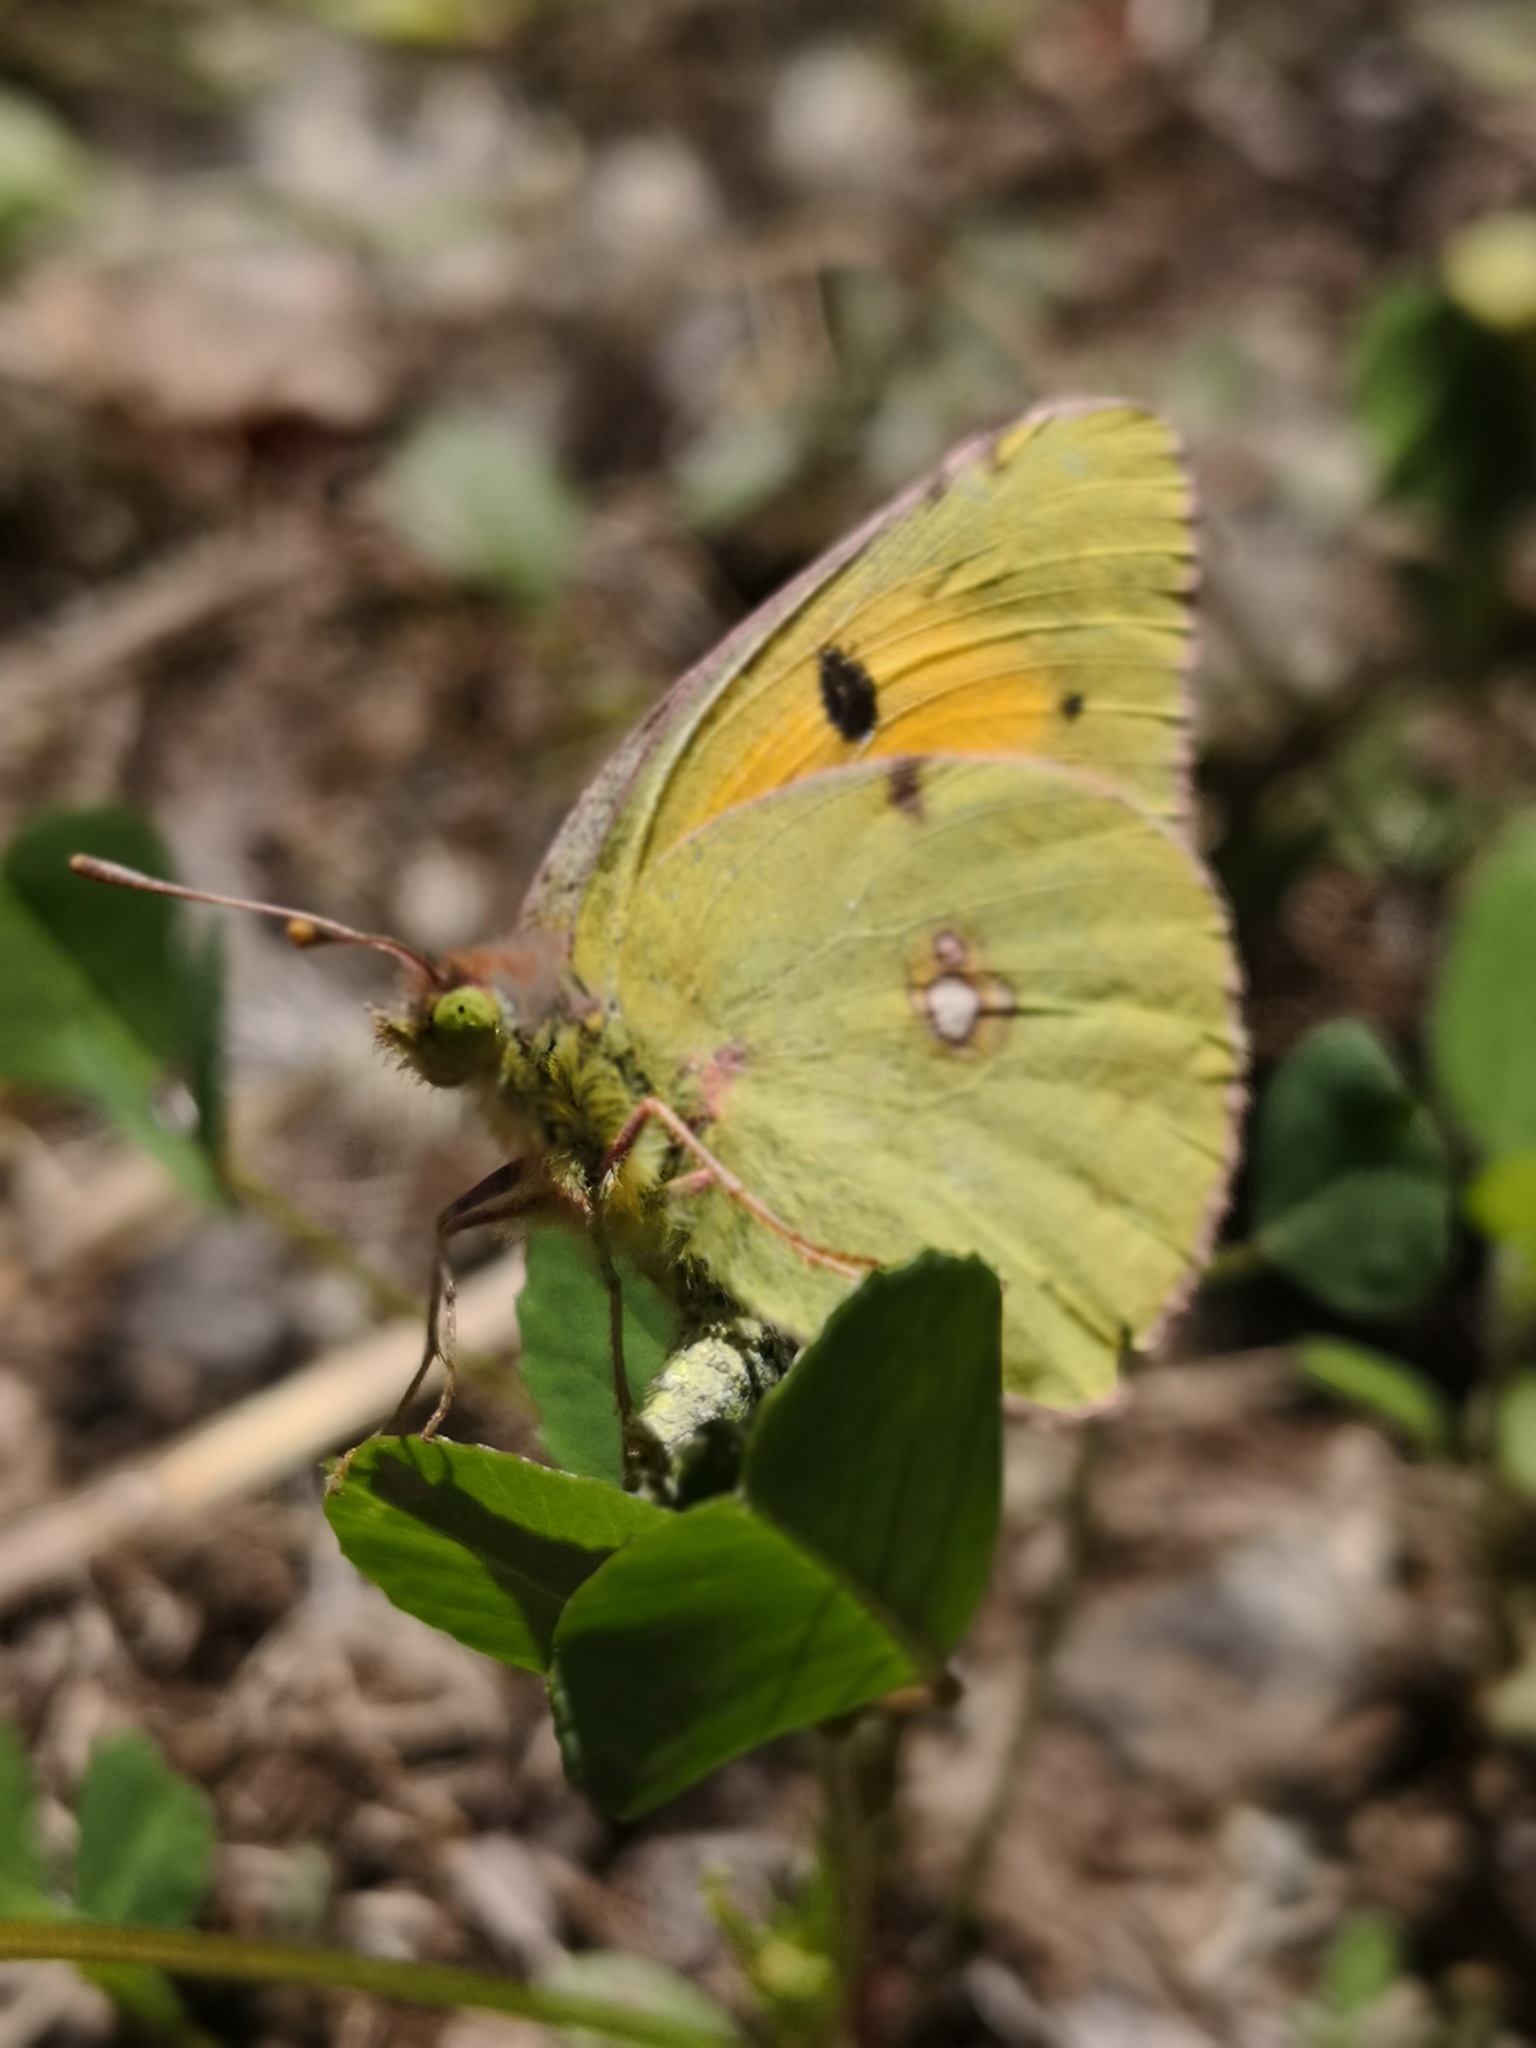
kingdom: Animalia
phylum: Arthropoda
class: Insecta
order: Lepidoptera
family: Pieridae
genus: Colias
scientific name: Colias croceus
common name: Clouded yellow
